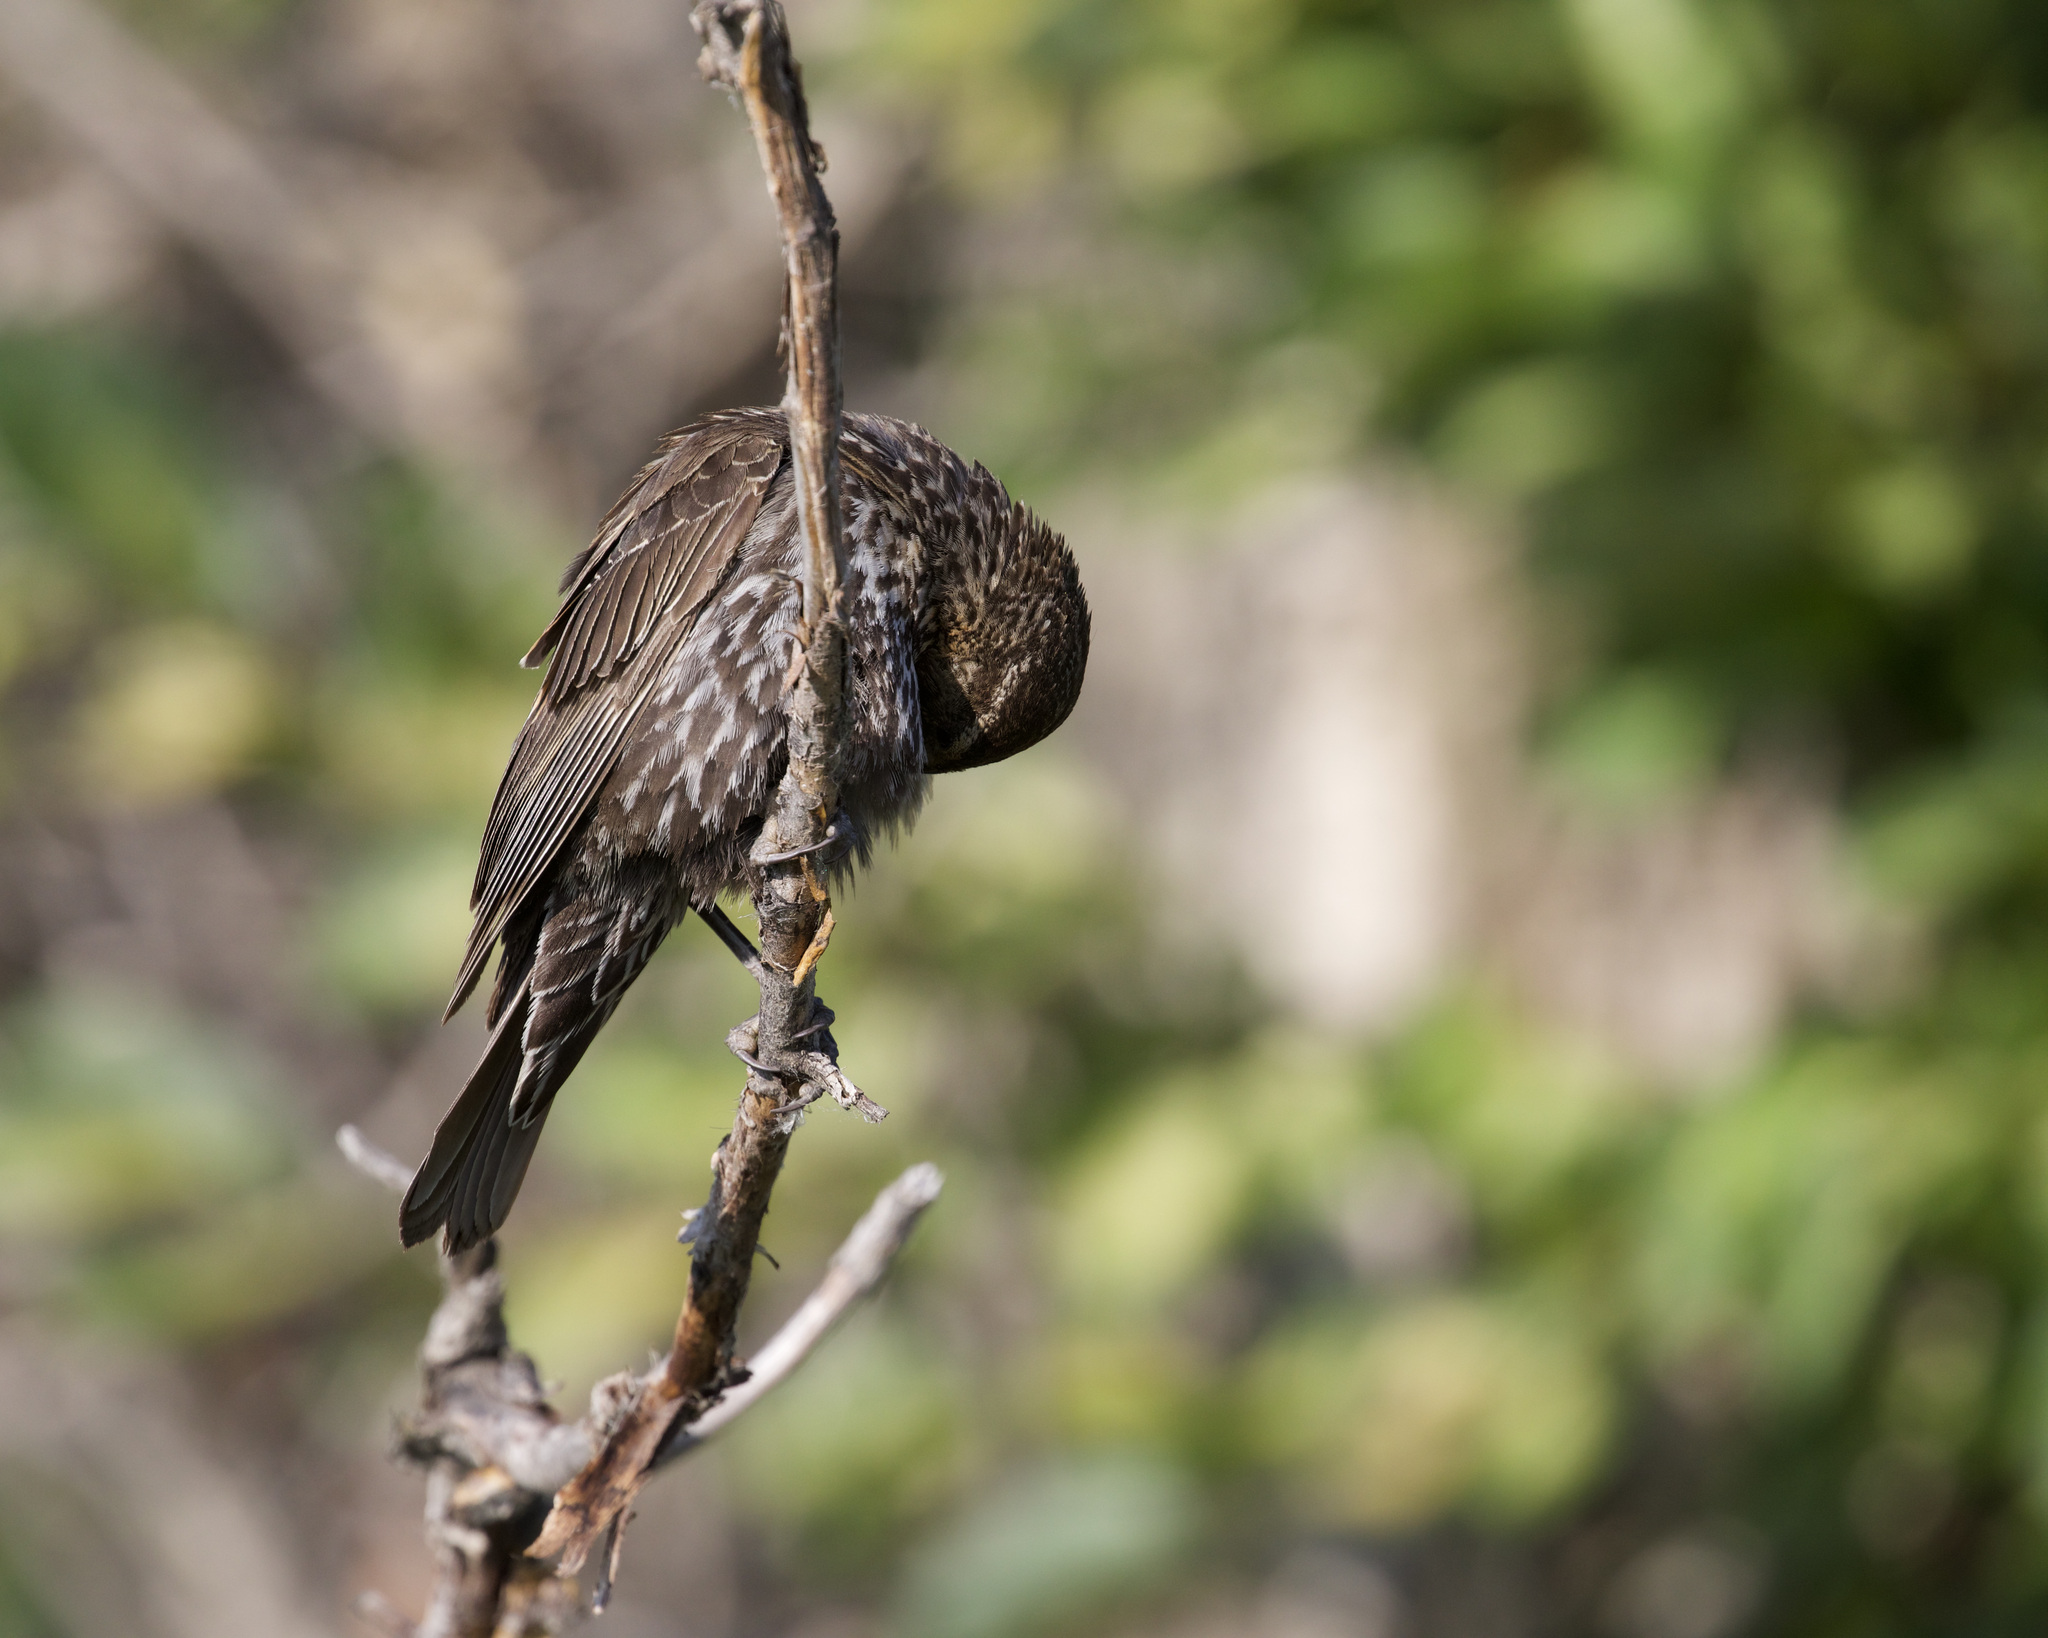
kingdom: Animalia
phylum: Chordata
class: Aves
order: Passeriformes
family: Icteridae
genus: Agelaius
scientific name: Agelaius phoeniceus
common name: Red-winged blackbird
